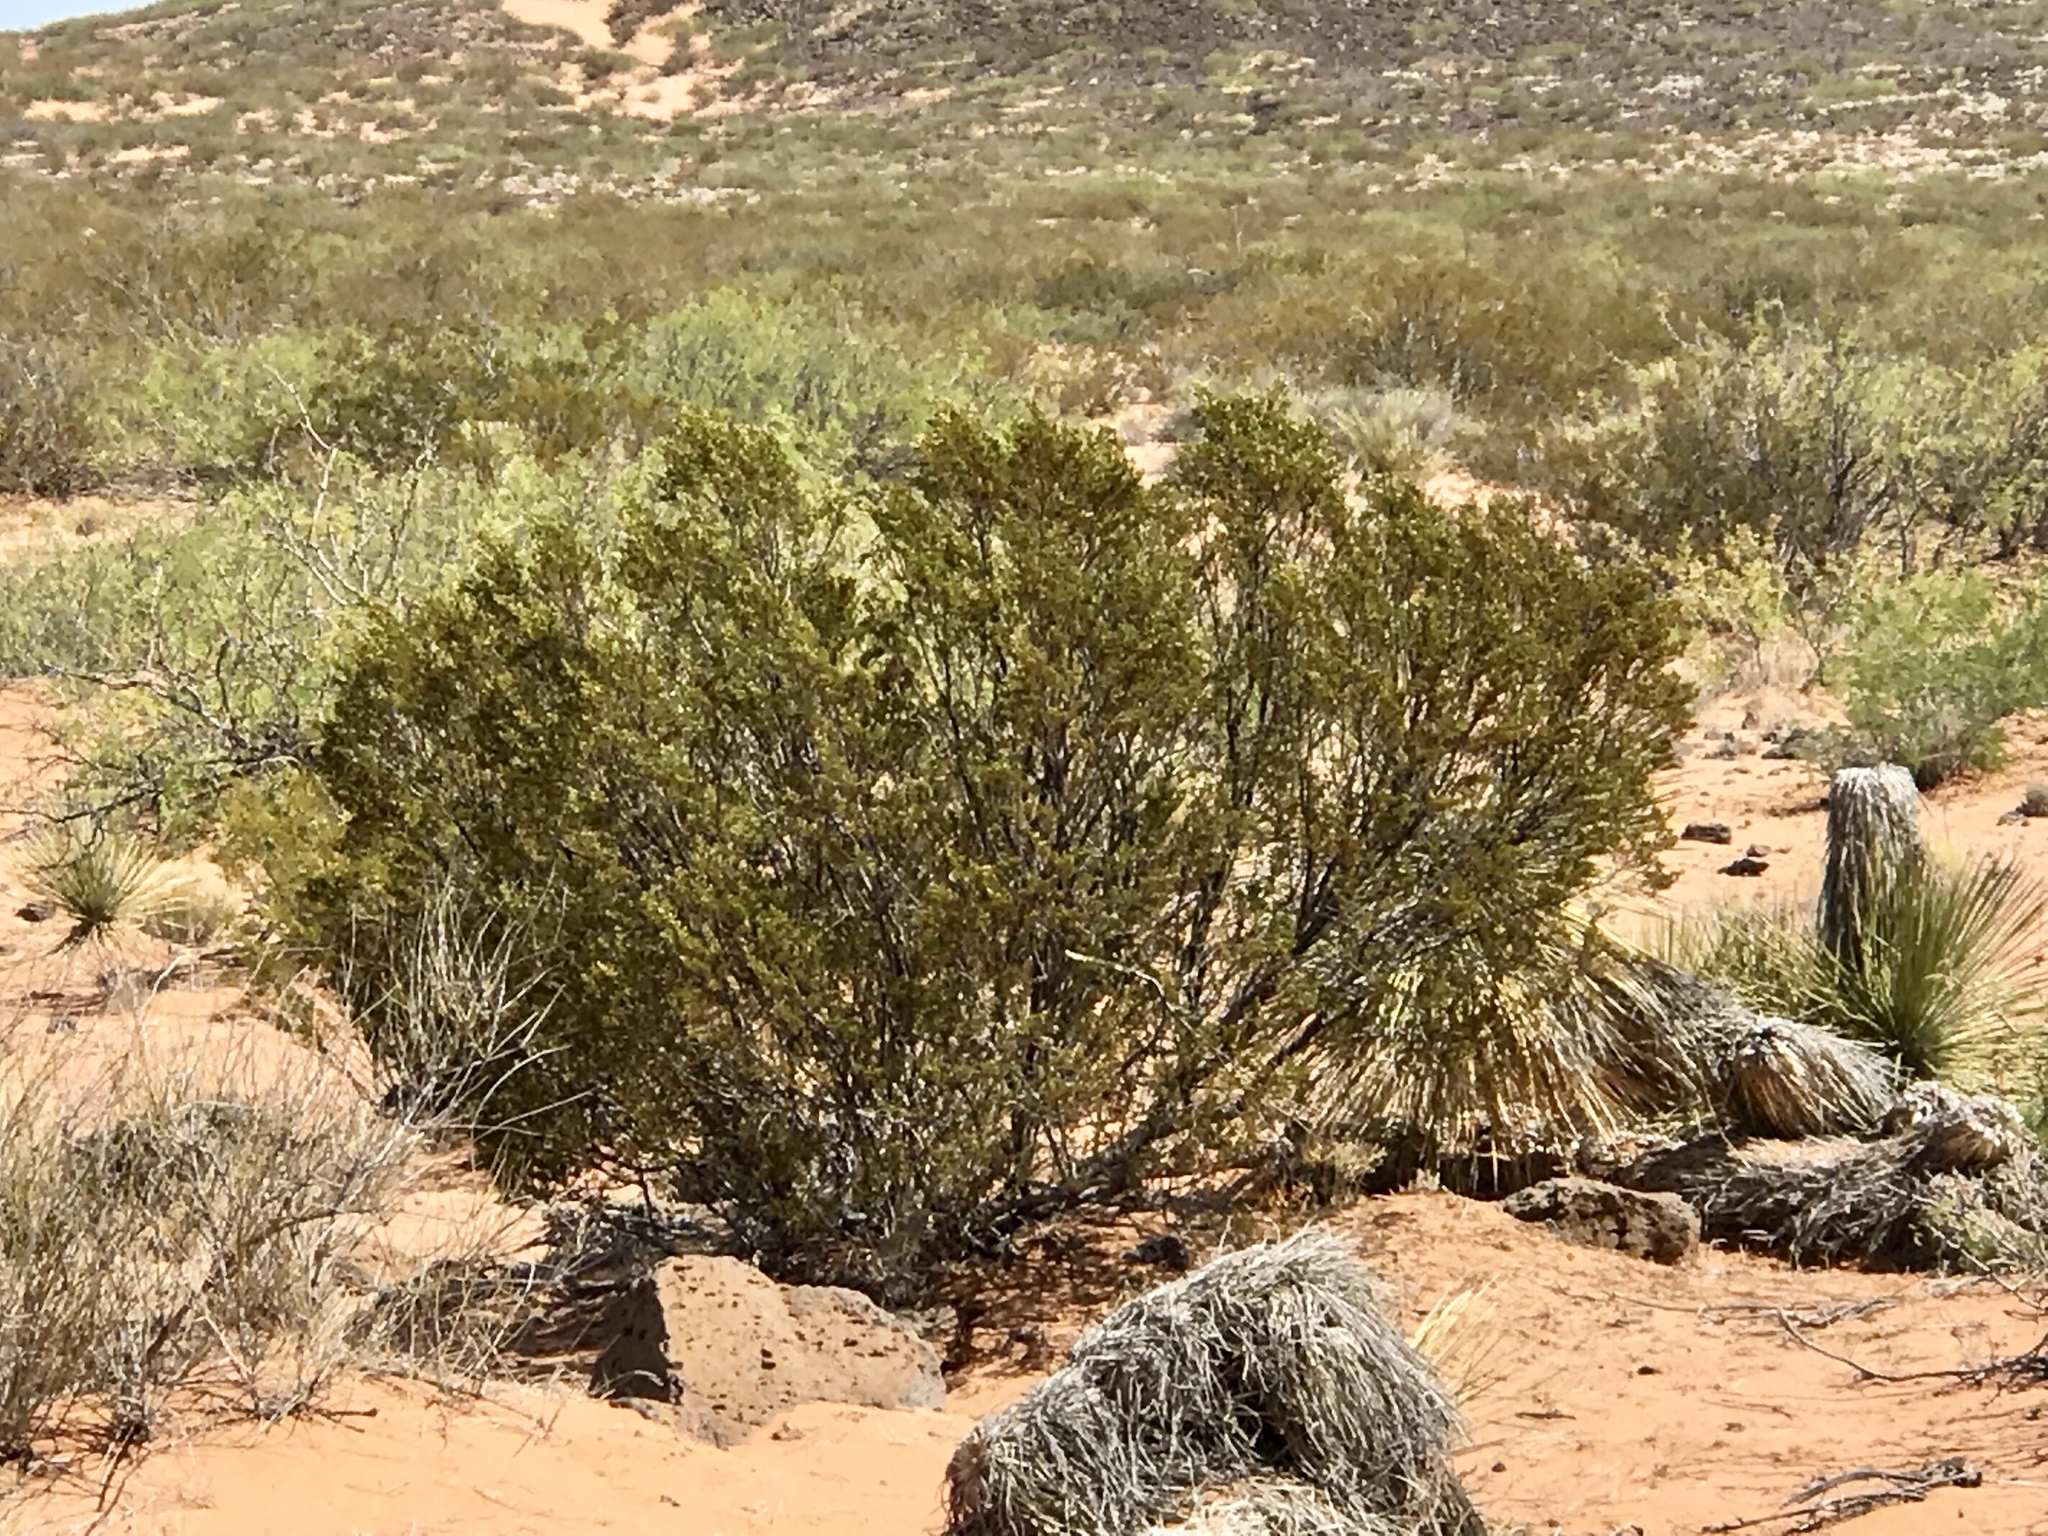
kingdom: Plantae
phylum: Tracheophyta
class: Magnoliopsida
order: Zygophyllales
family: Zygophyllaceae
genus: Larrea
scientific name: Larrea tridentata
